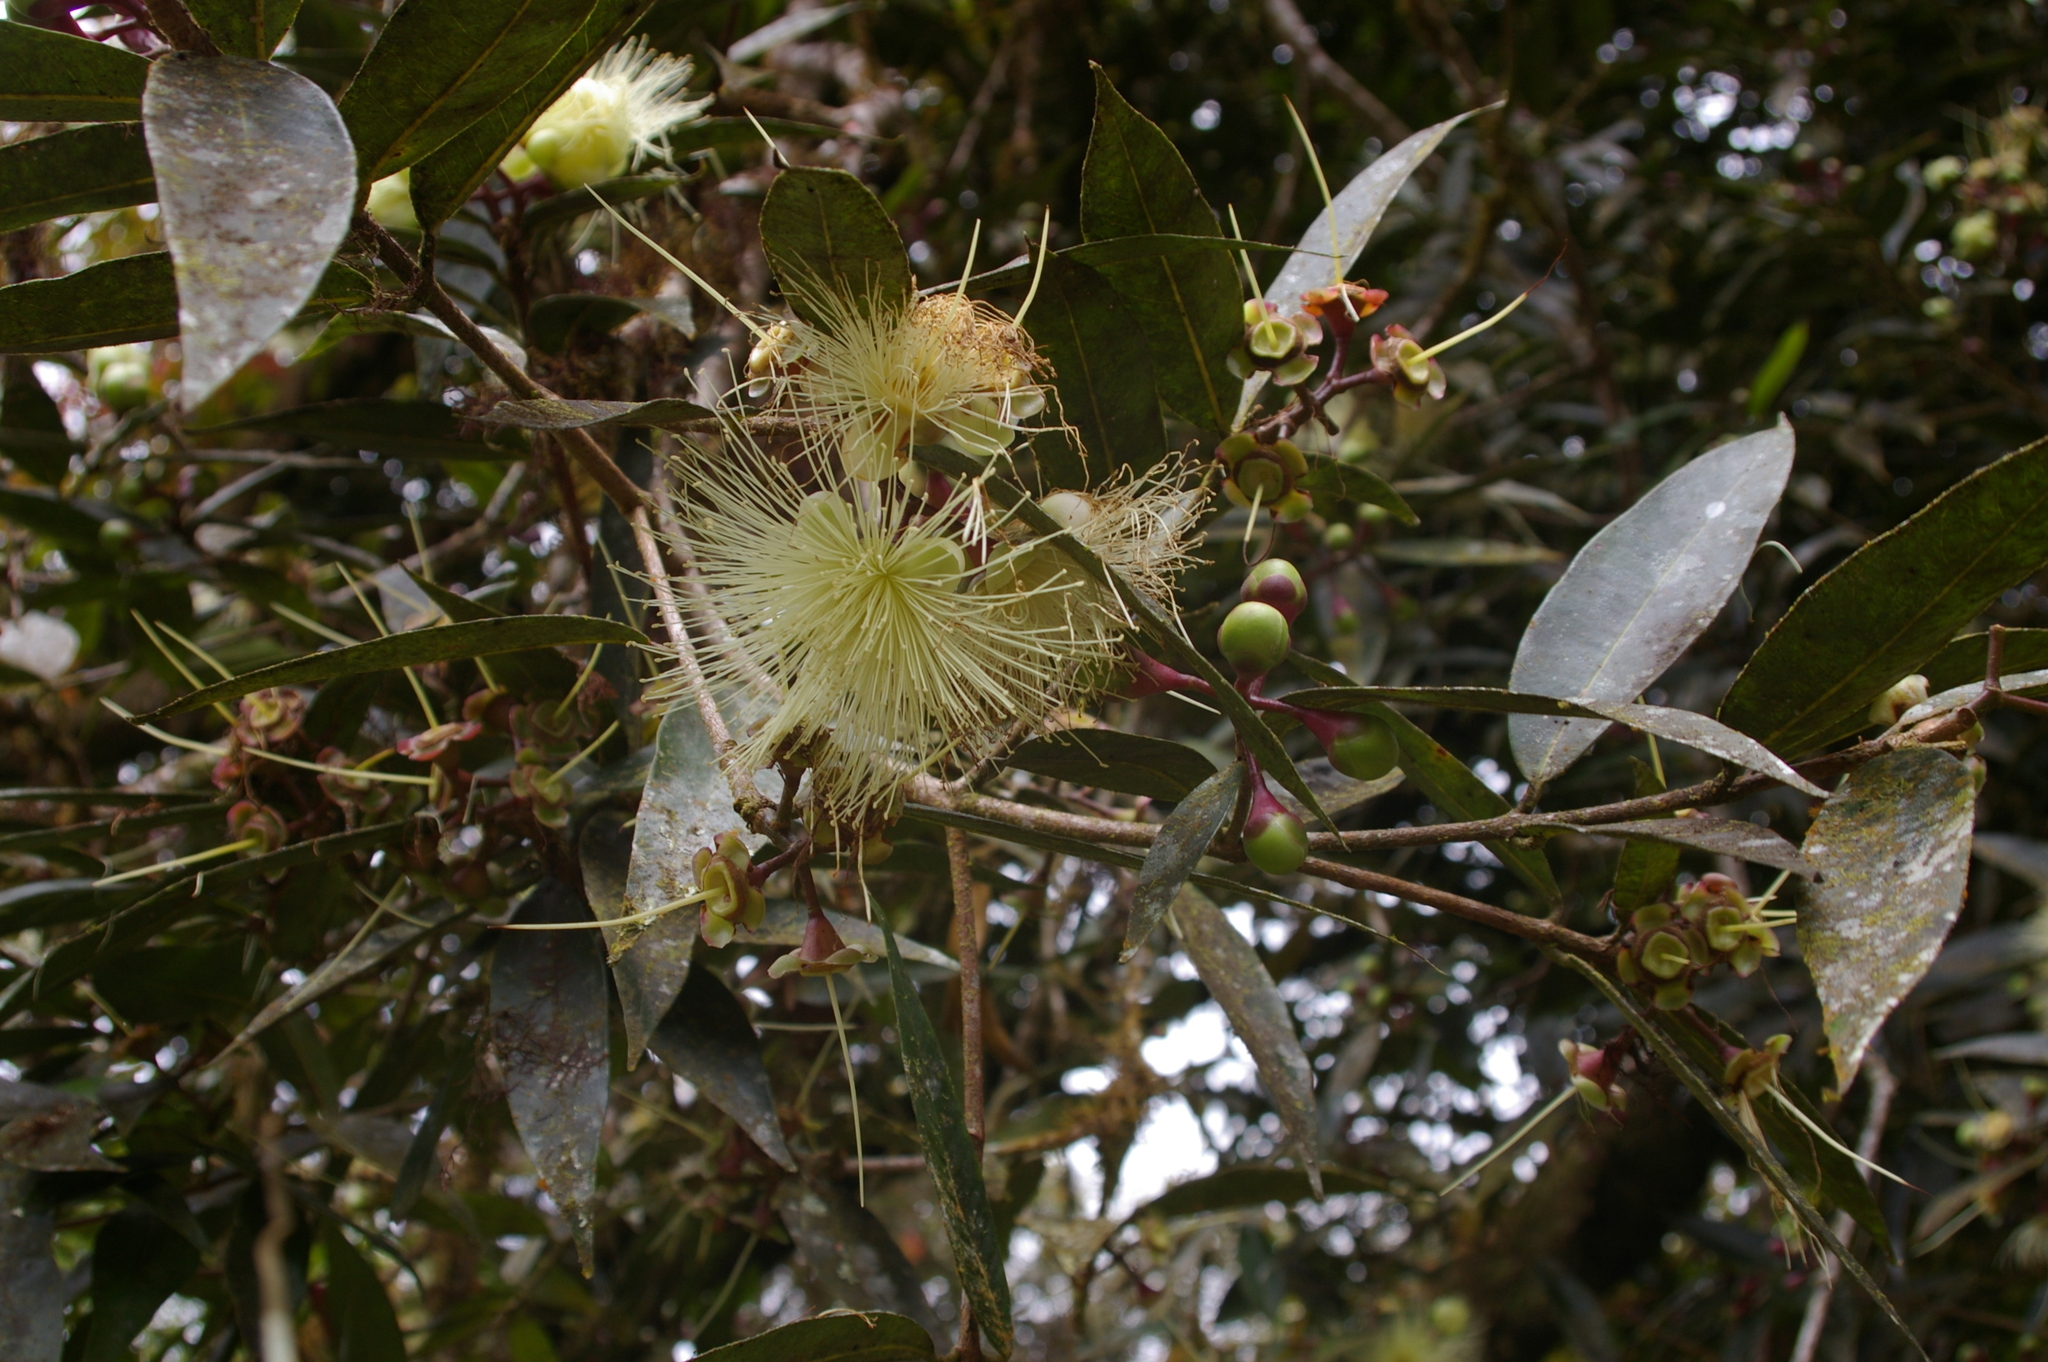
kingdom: Plantae
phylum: Tracheophyta
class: Magnoliopsida
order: Myrtales
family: Myrtaceae
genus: Syzygium
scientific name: Syzygium jambos
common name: Malabar plum
